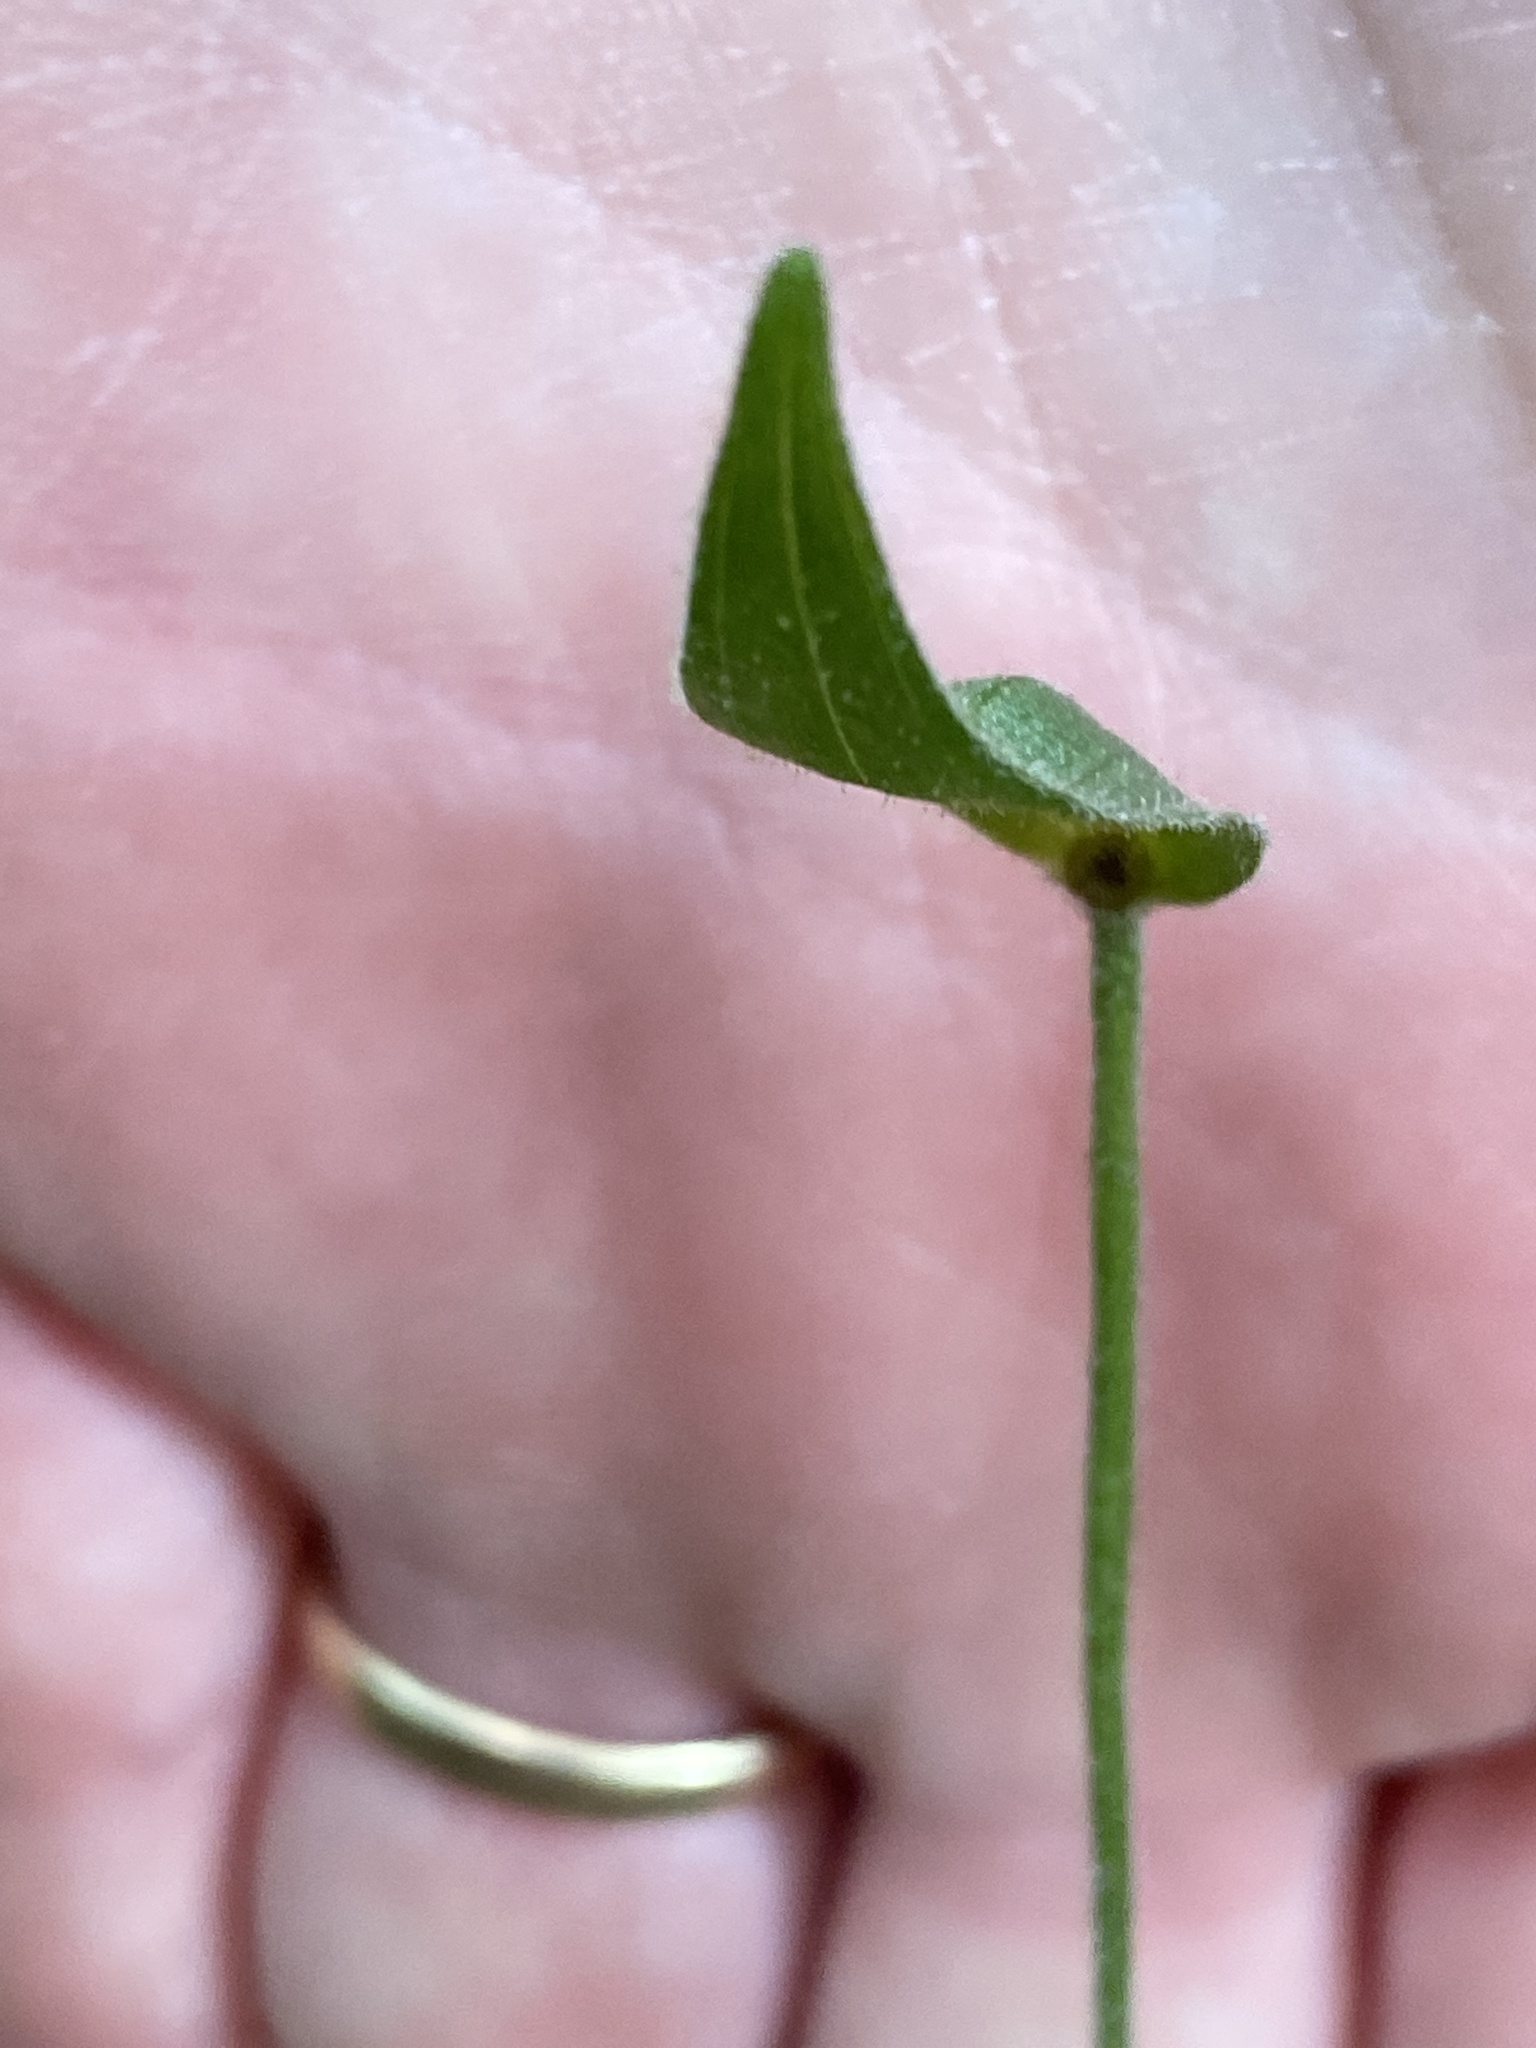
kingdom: Plantae
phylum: Tracheophyta
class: Liliopsida
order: Asparagales
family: Orchidaceae
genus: Cypripedium
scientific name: Cypripedium acaule
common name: Pink lady's-slipper
